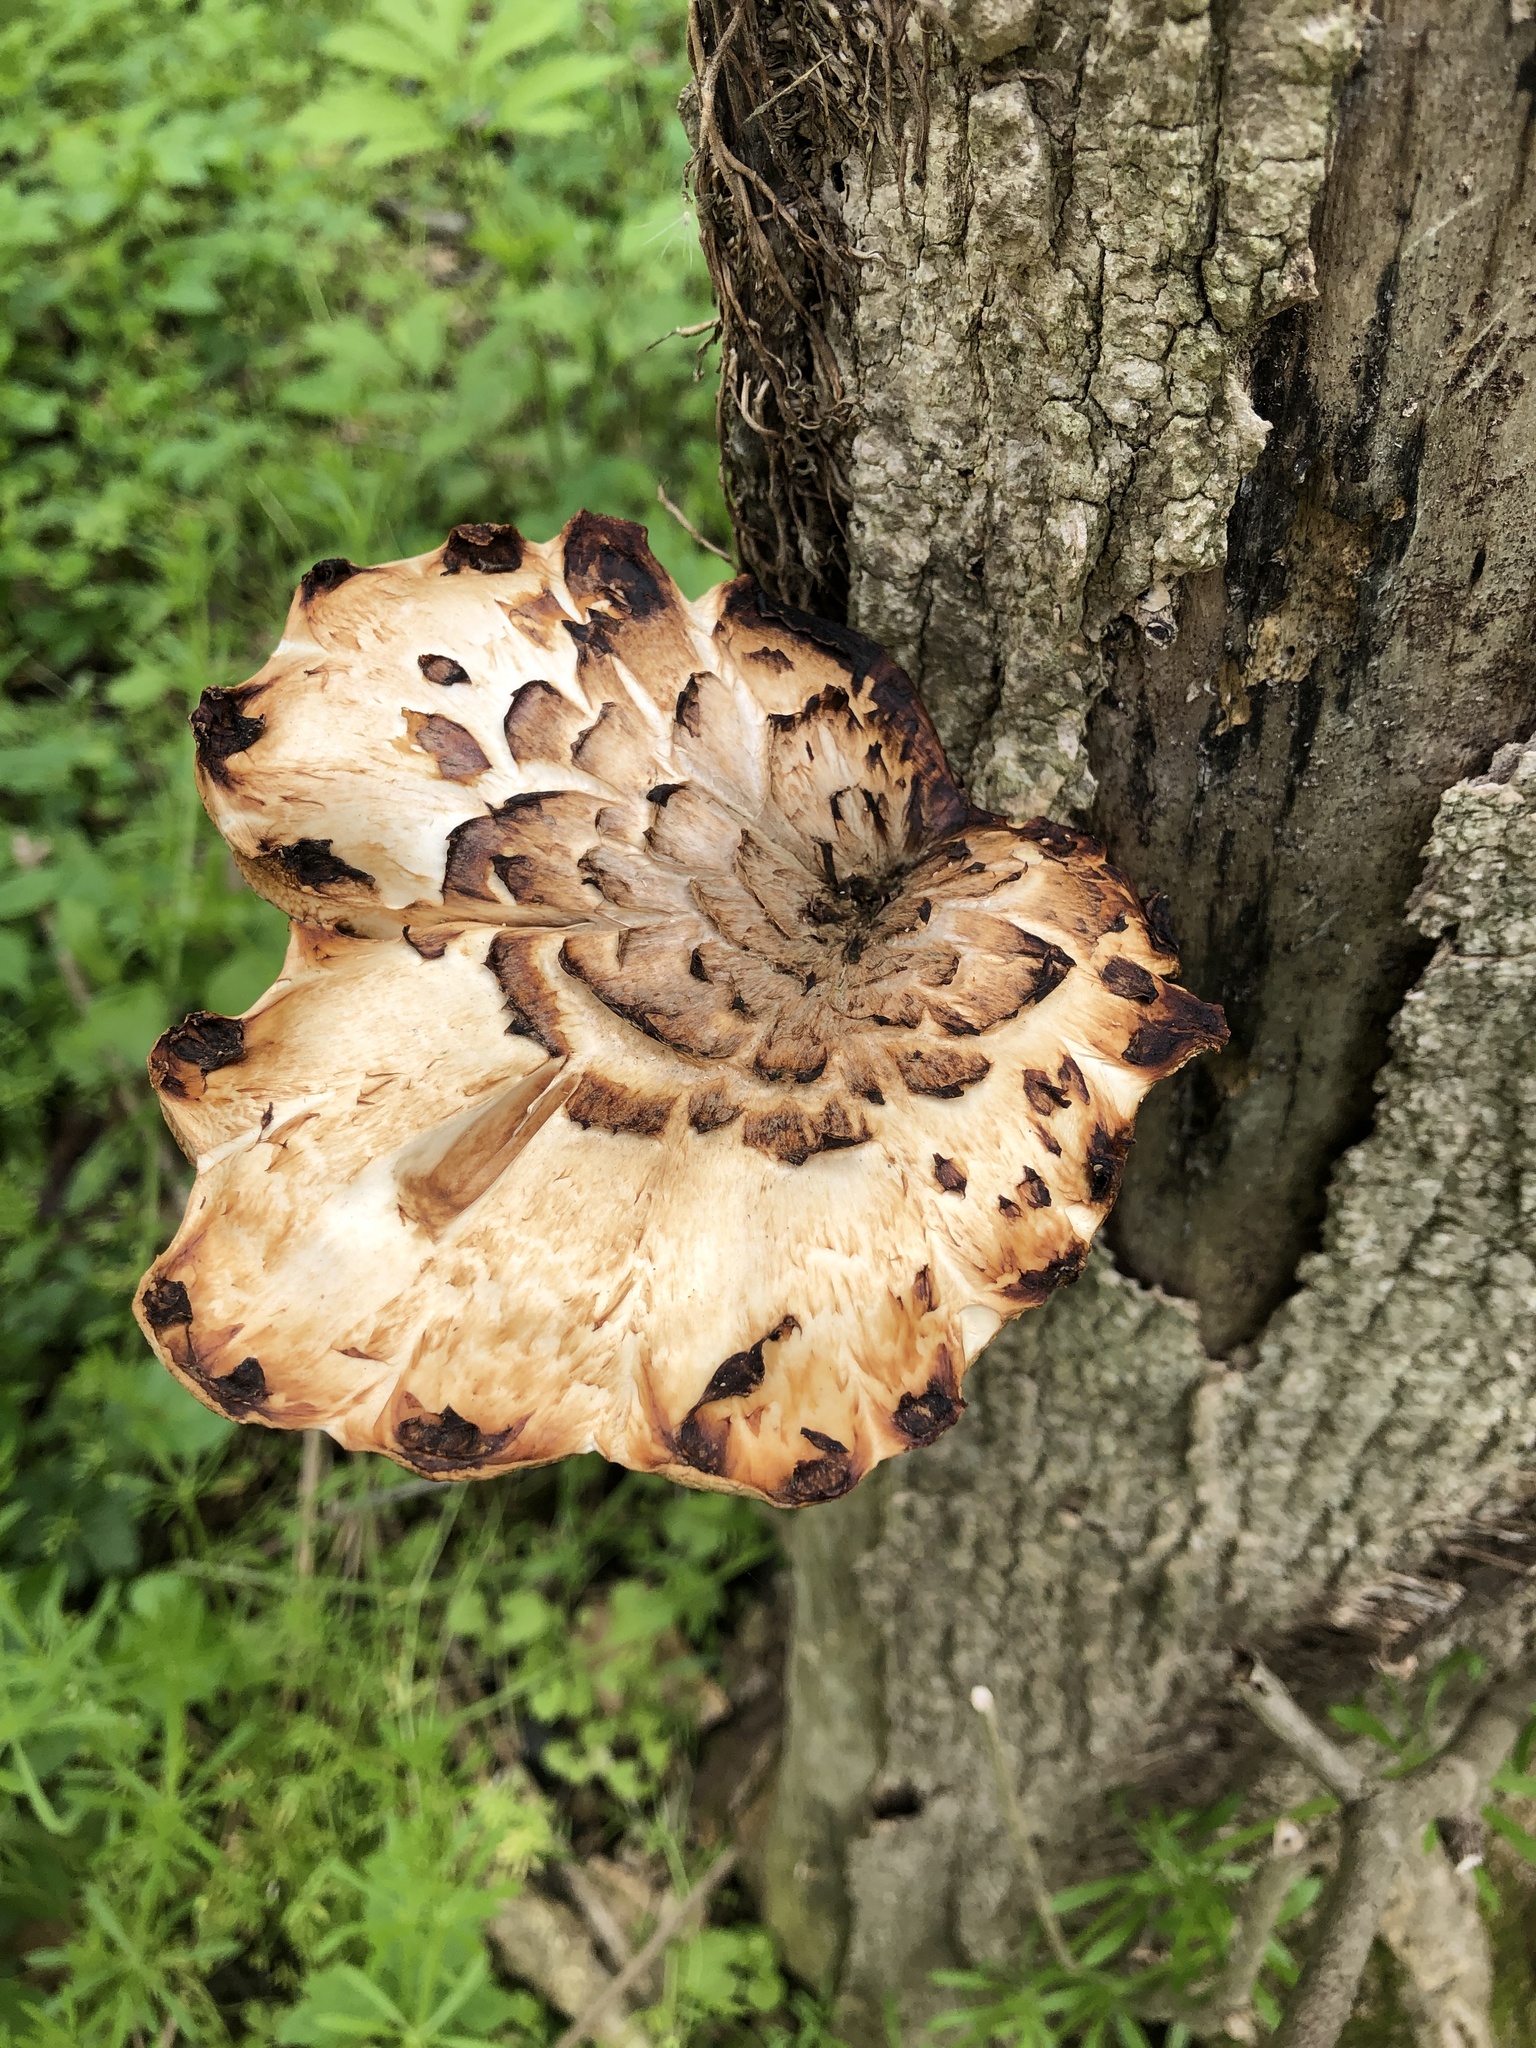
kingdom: Fungi
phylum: Basidiomycota
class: Agaricomycetes
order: Polyporales
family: Polyporaceae
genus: Cerioporus
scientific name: Cerioporus squamosus
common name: Dryad's saddle
